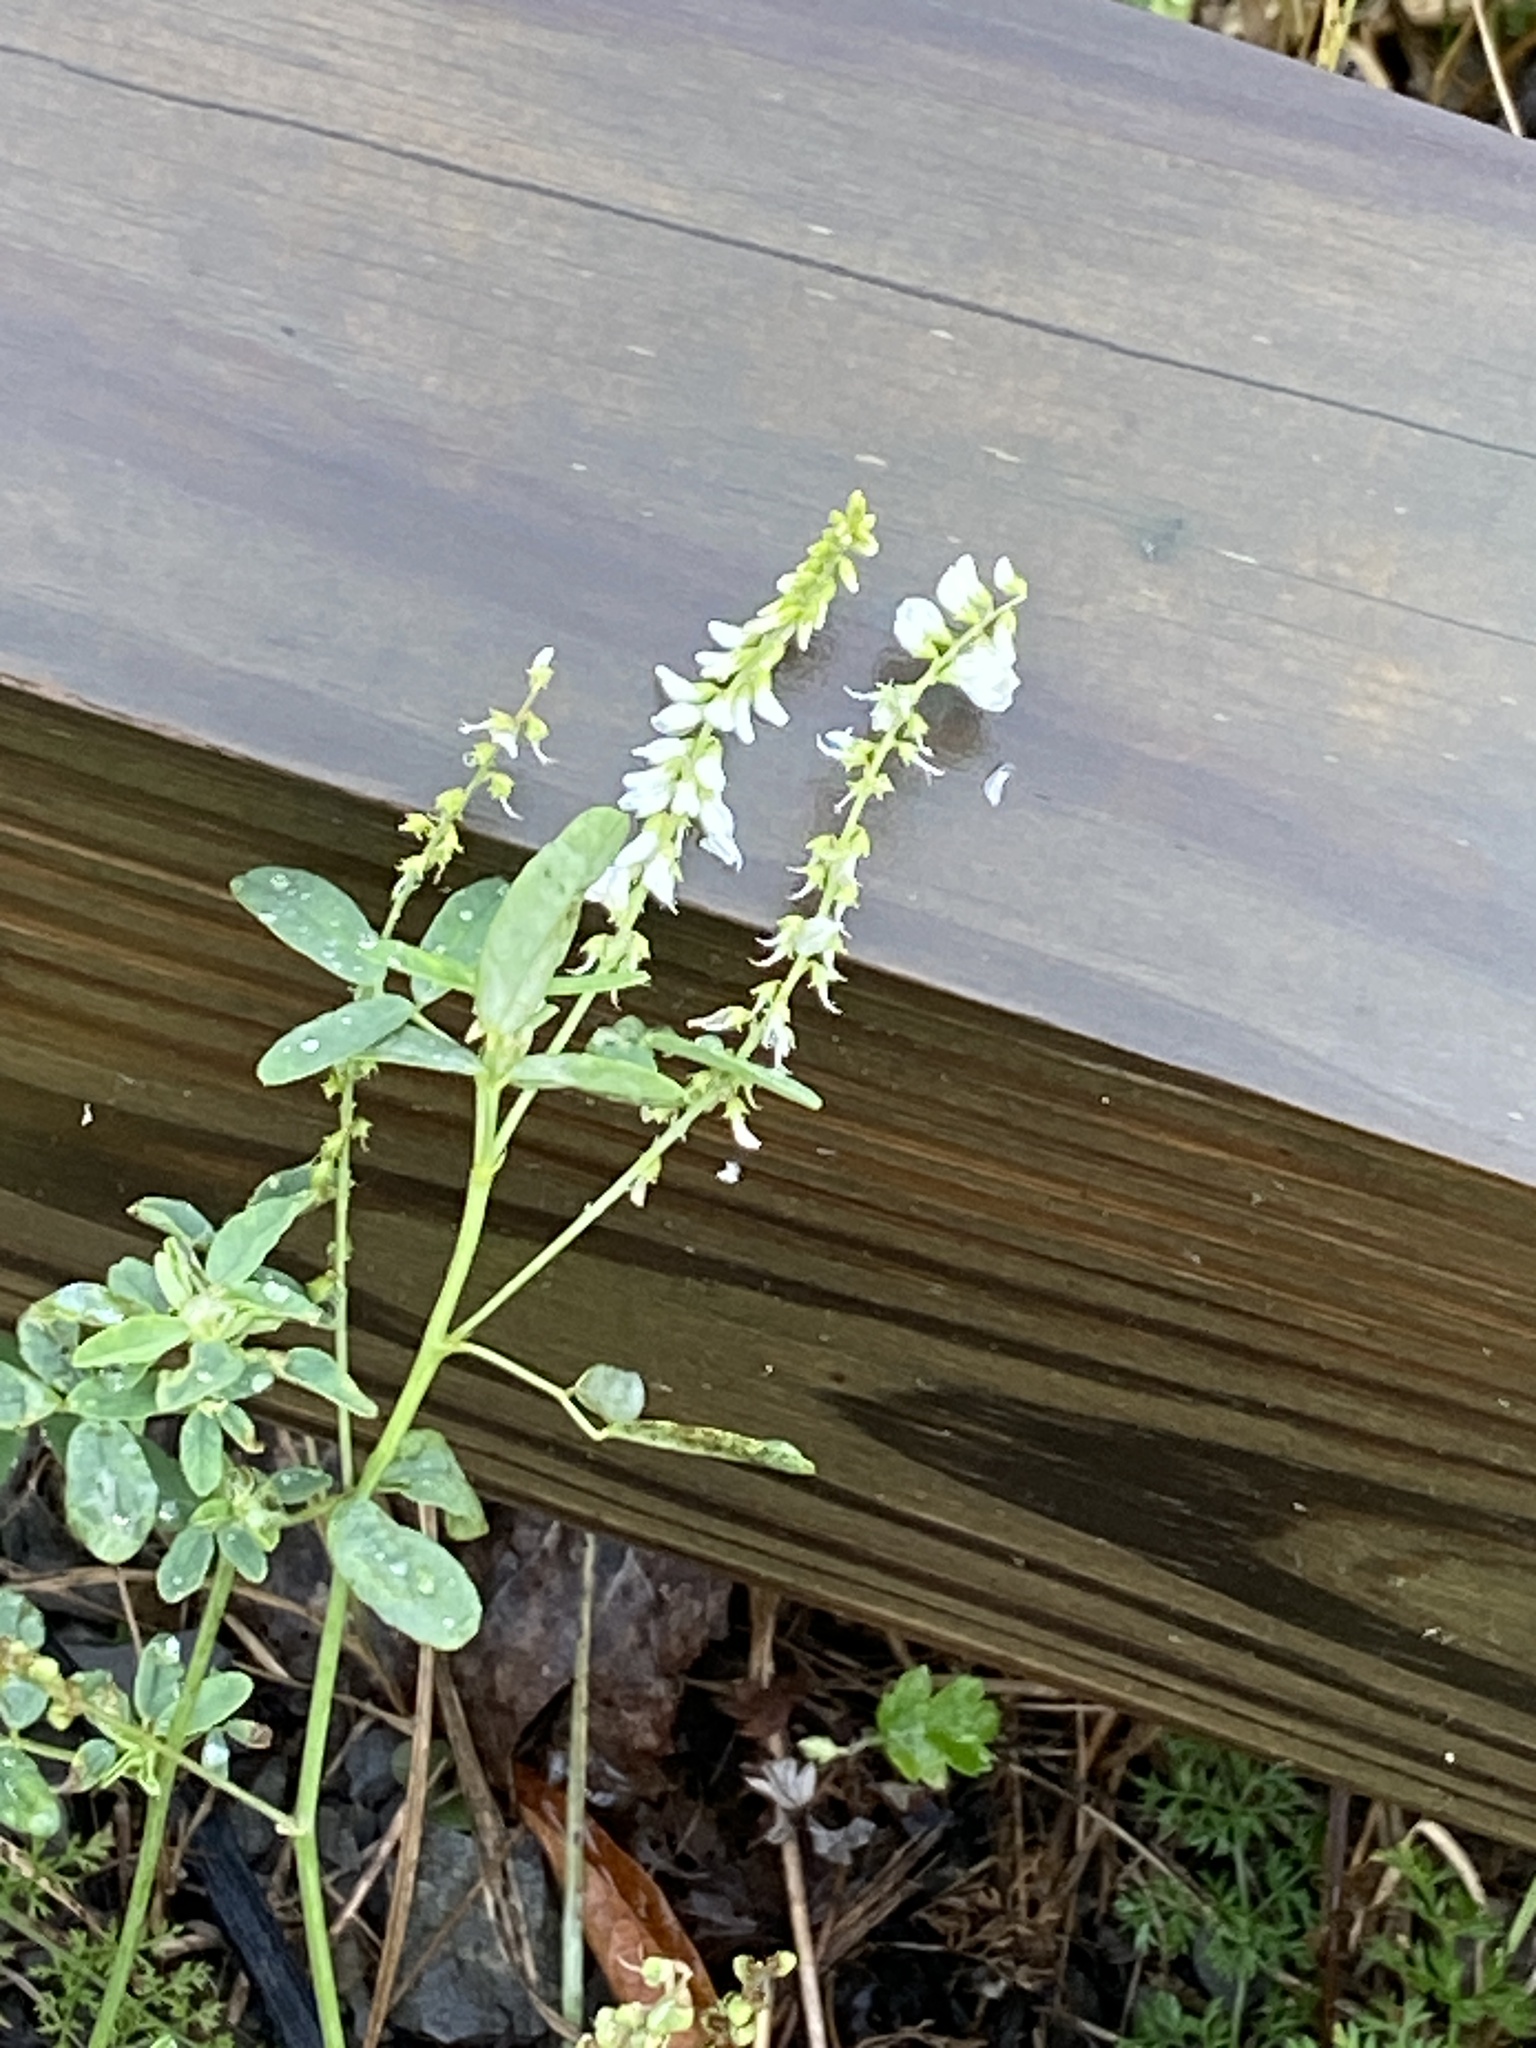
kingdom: Plantae
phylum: Tracheophyta
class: Magnoliopsida
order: Fabales
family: Fabaceae
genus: Melilotus
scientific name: Melilotus albus
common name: White melilot
